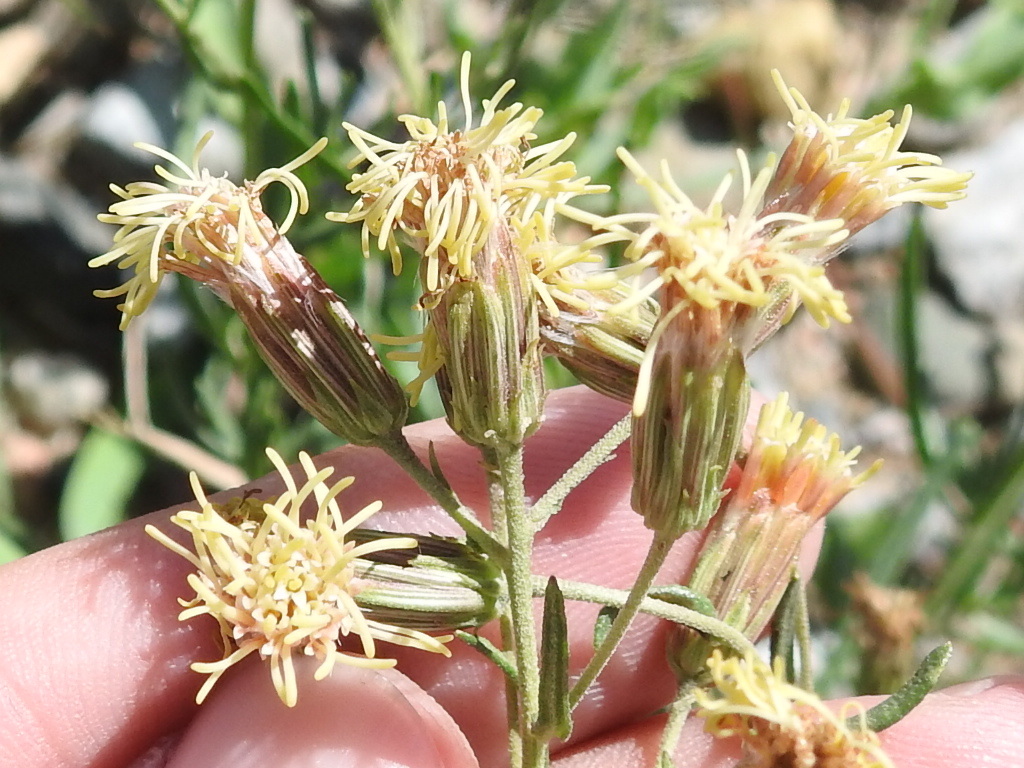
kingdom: Plantae
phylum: Tracheophyta
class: Magnoliopsida
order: Asterales
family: Asteraceae
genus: Brickellia
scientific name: Brickellia eupatorioides
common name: False boneset
